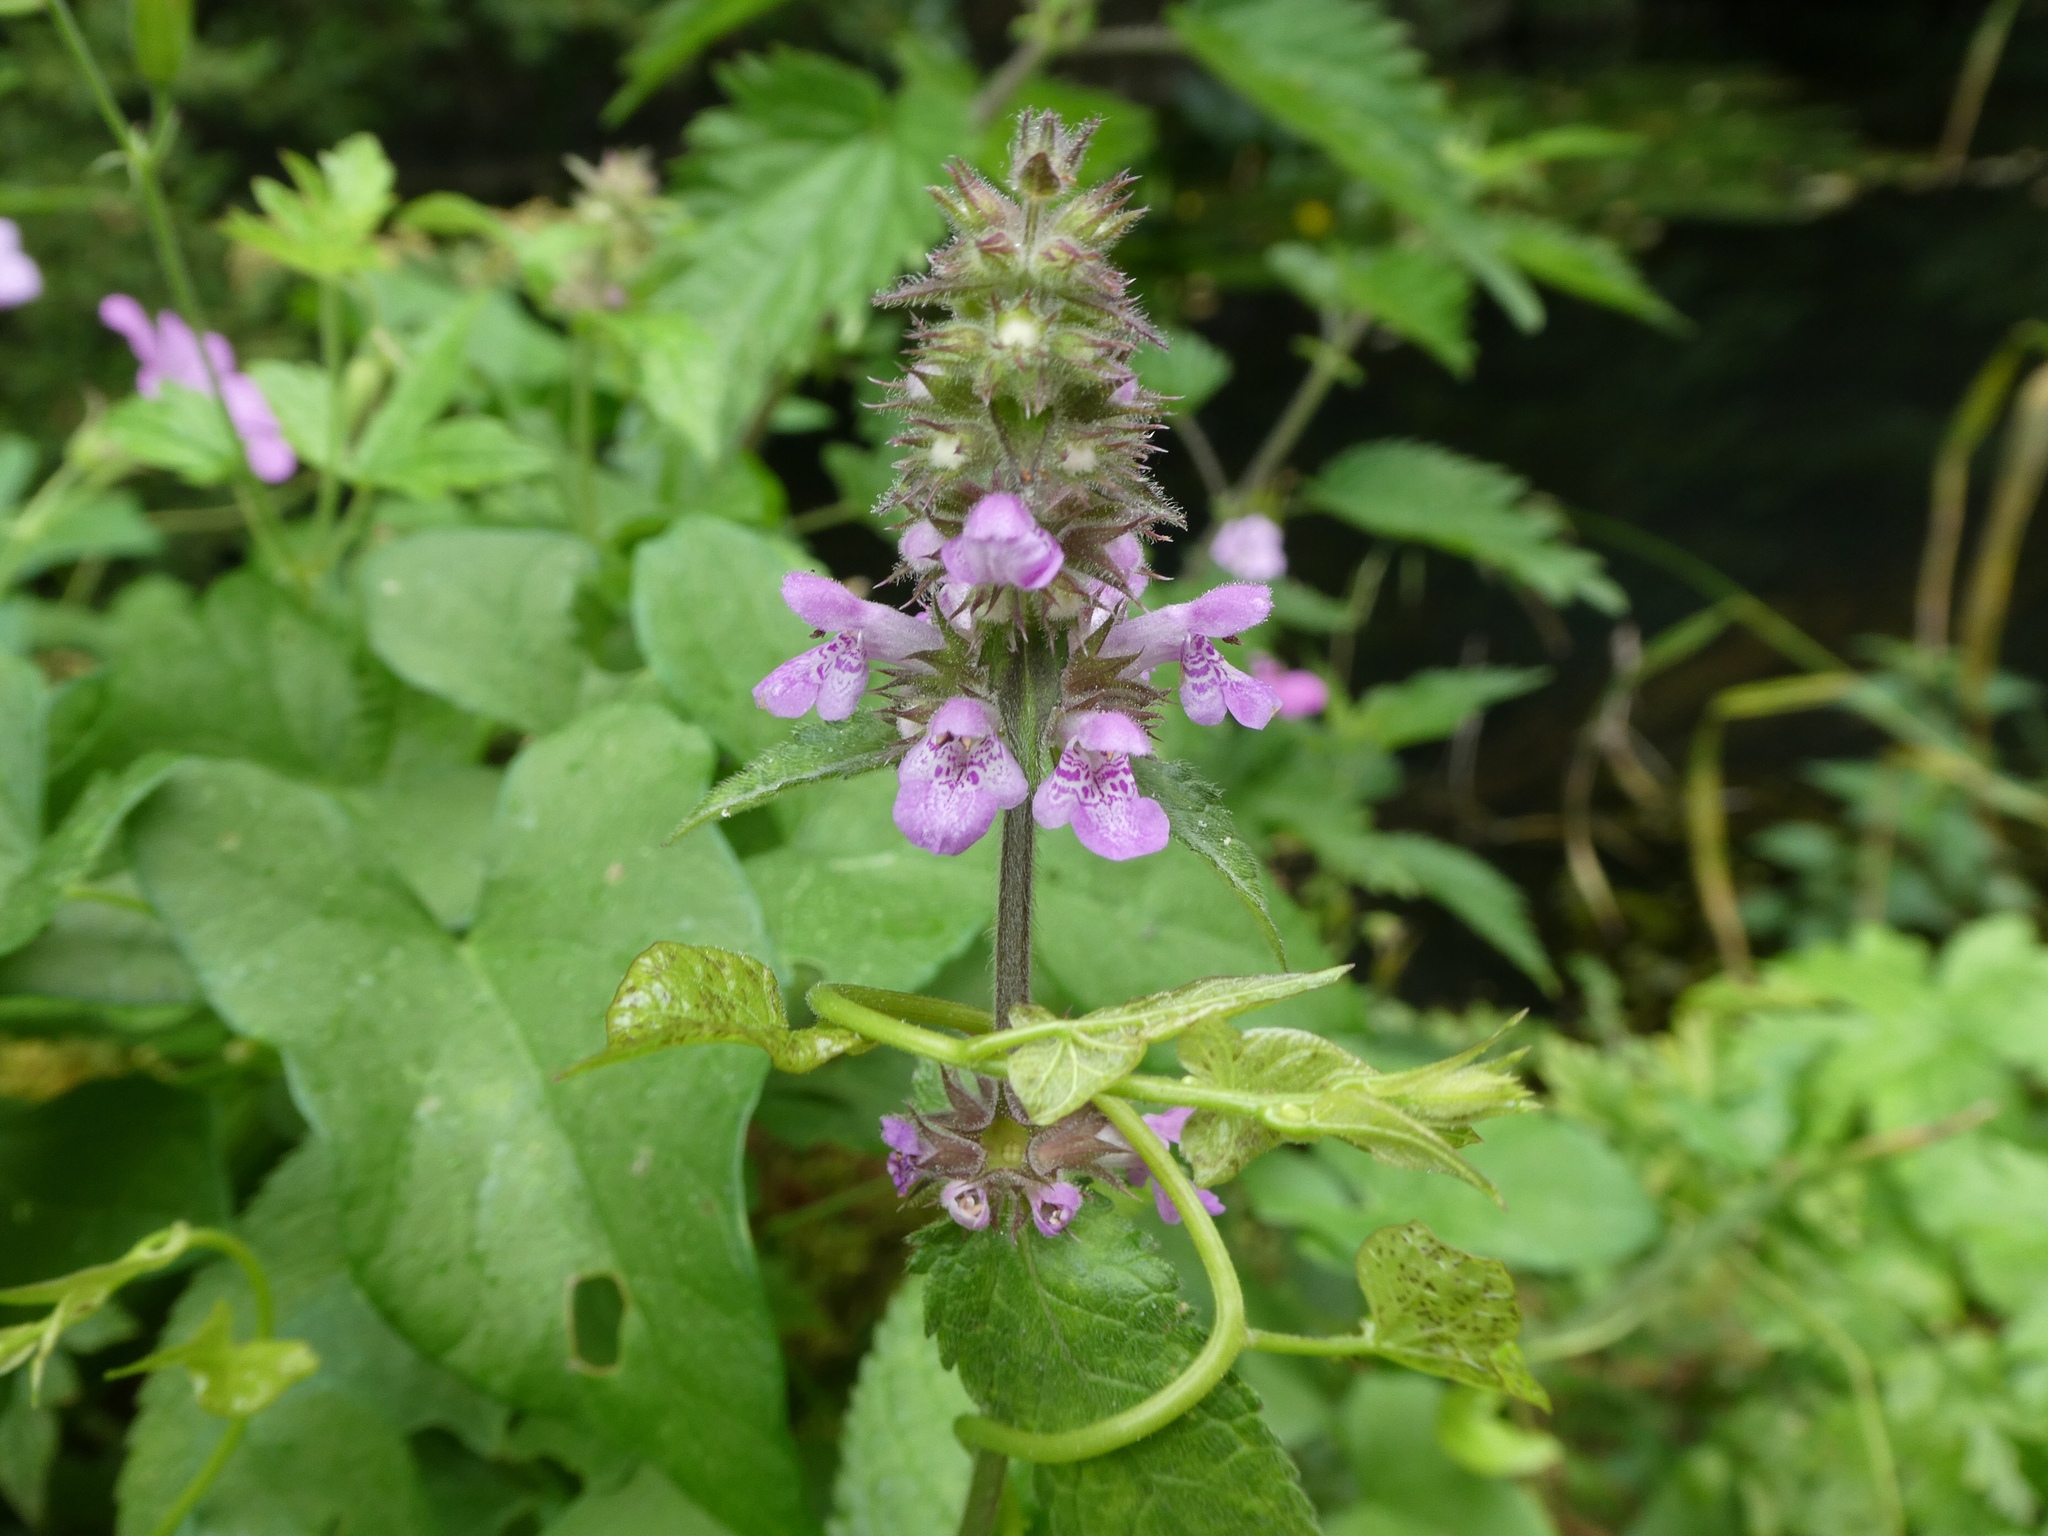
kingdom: Plantae
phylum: Tracheophyta
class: Magnoliopsida
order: Lamiales
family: Lamiaceae
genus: Stachys
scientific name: Stachys palustris
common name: Marsh woundwort
